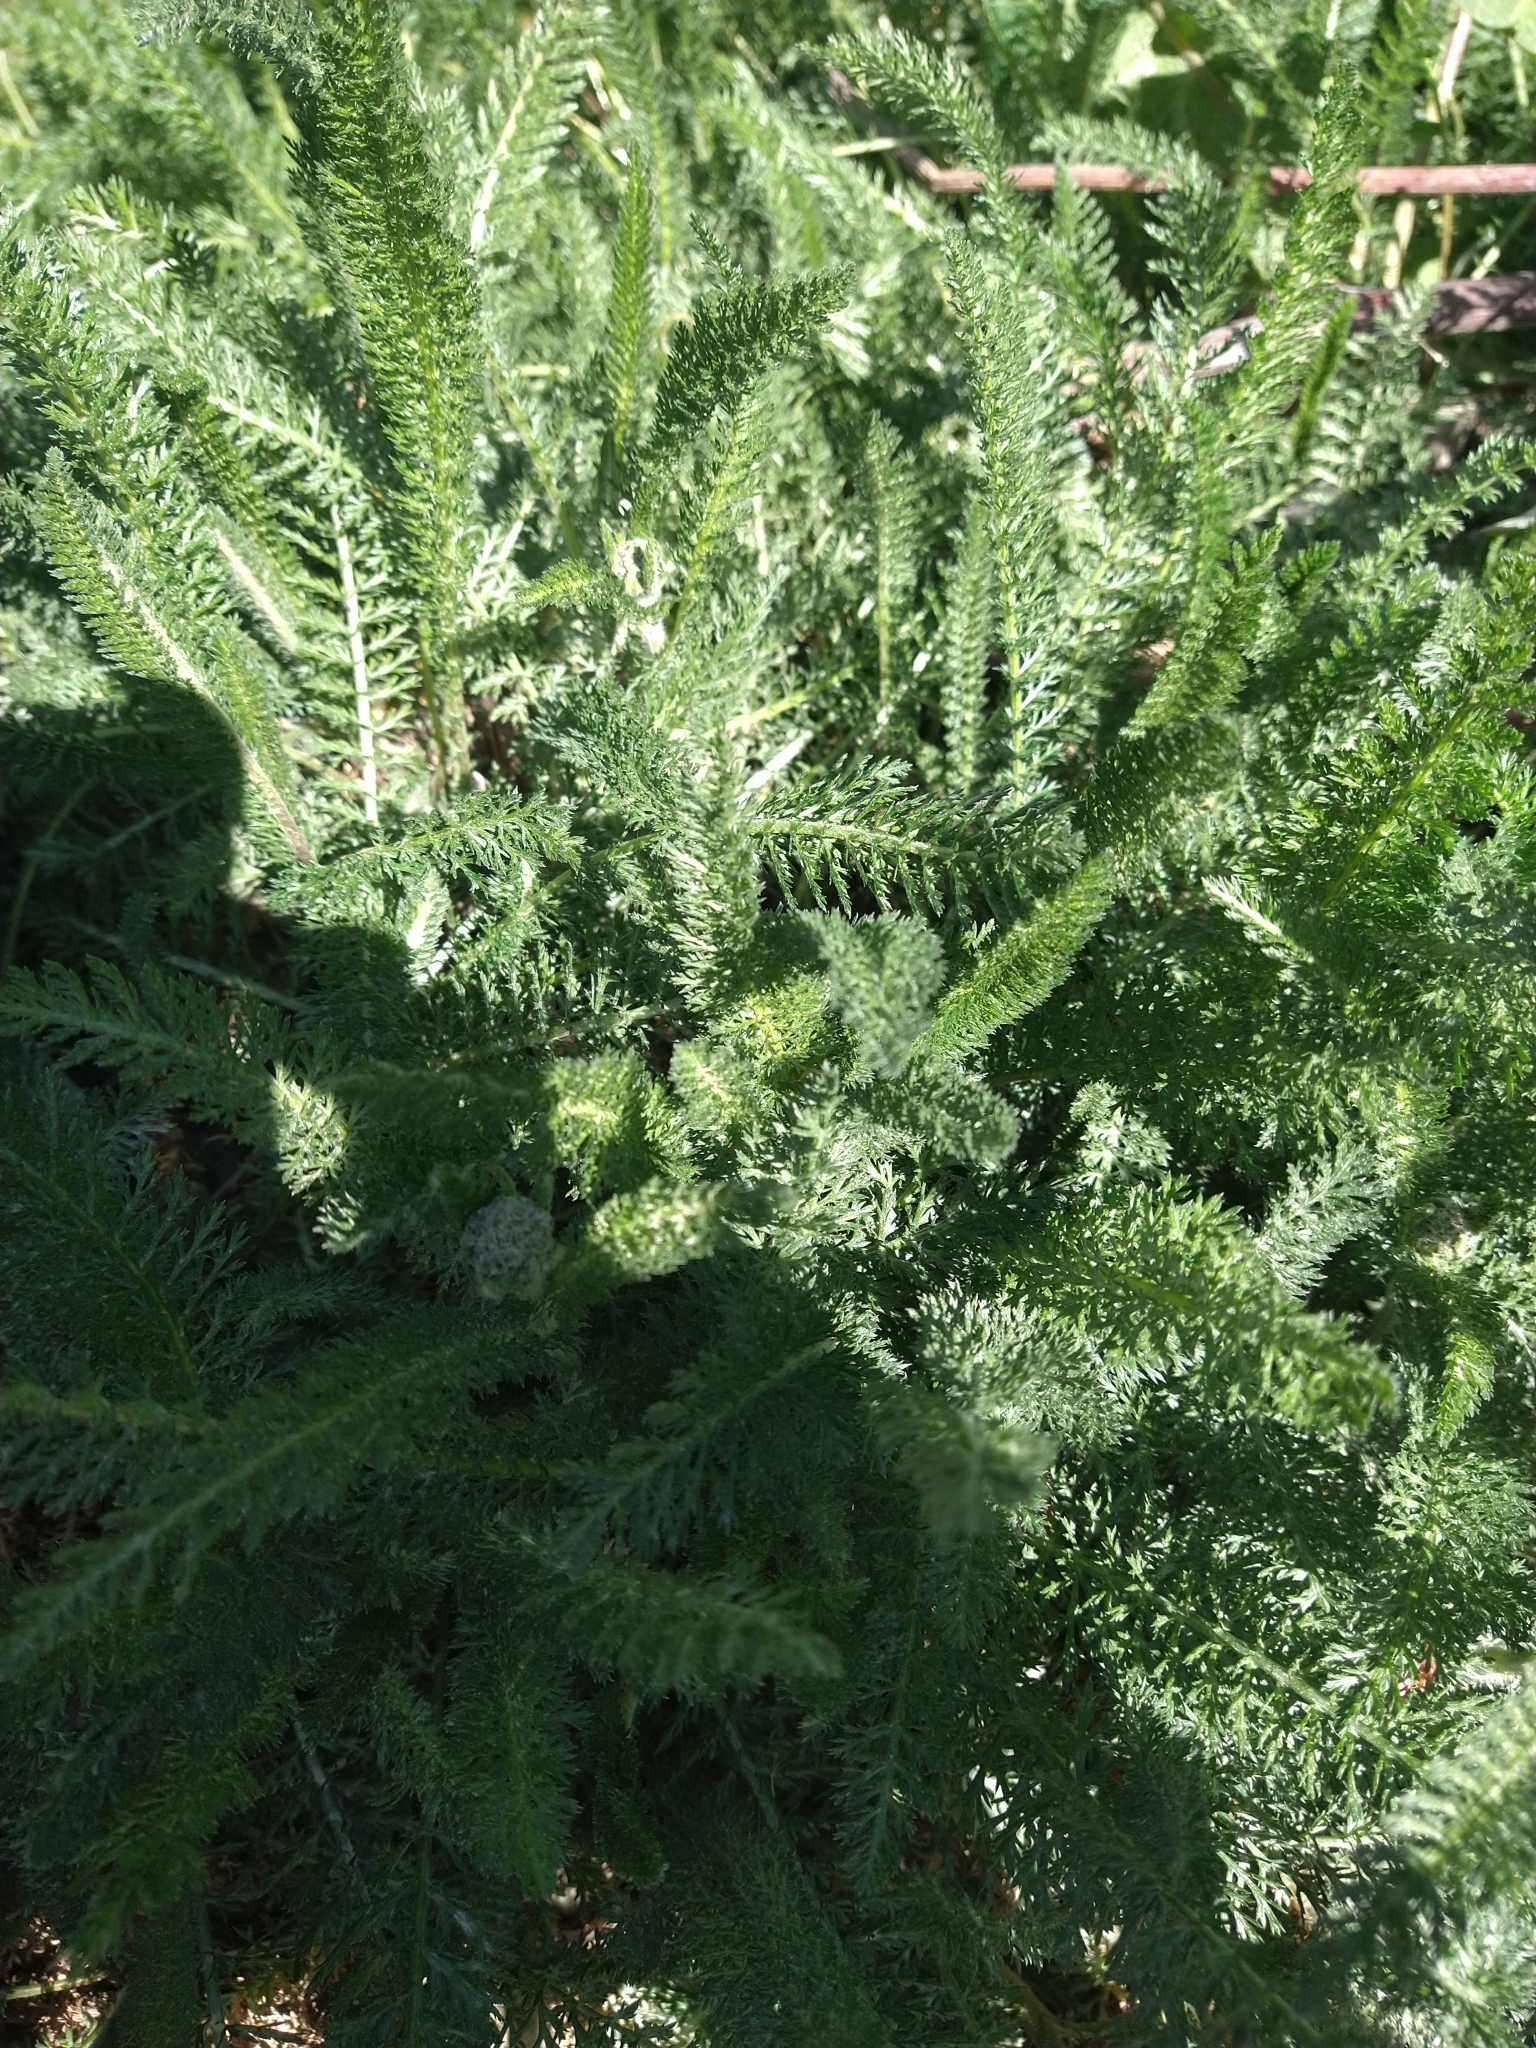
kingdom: Plantae
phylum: Tracheophyta
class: Magnoliopsida
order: Asterales
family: Asteraceae
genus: Achillea
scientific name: Achillea millefolium
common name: Yarrow
